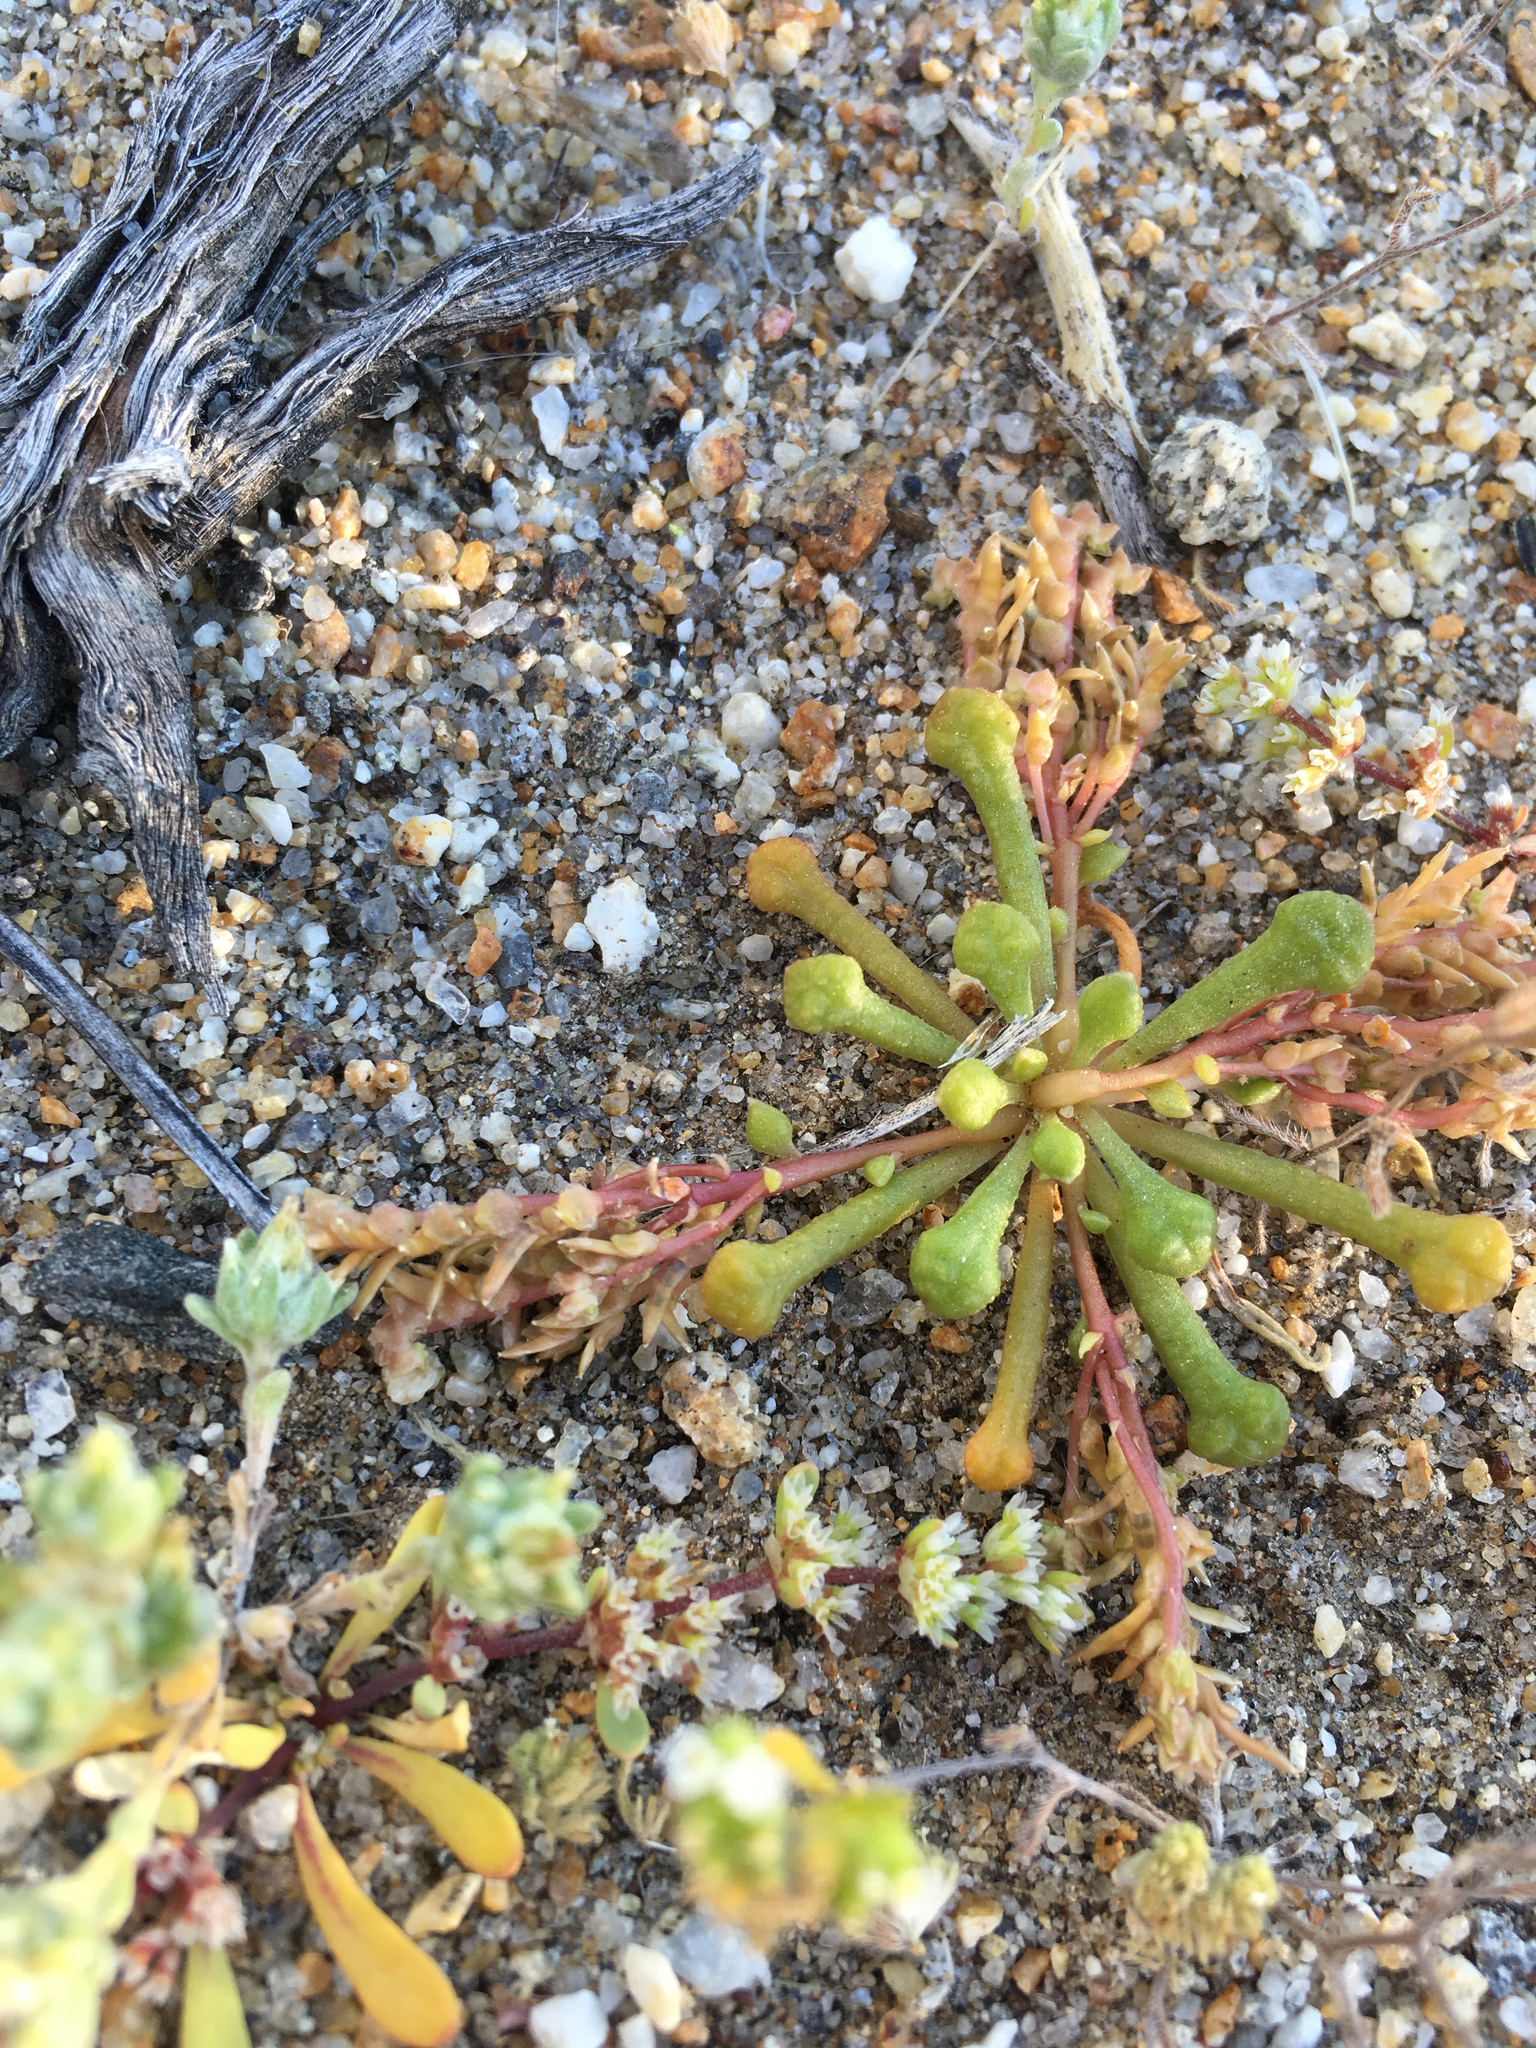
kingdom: Plantae
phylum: Tracheophyta
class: Magnoliopsida
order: Caryophyllales
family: Montiaceae
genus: Calyptridium
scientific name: Calyptridium monandrum
